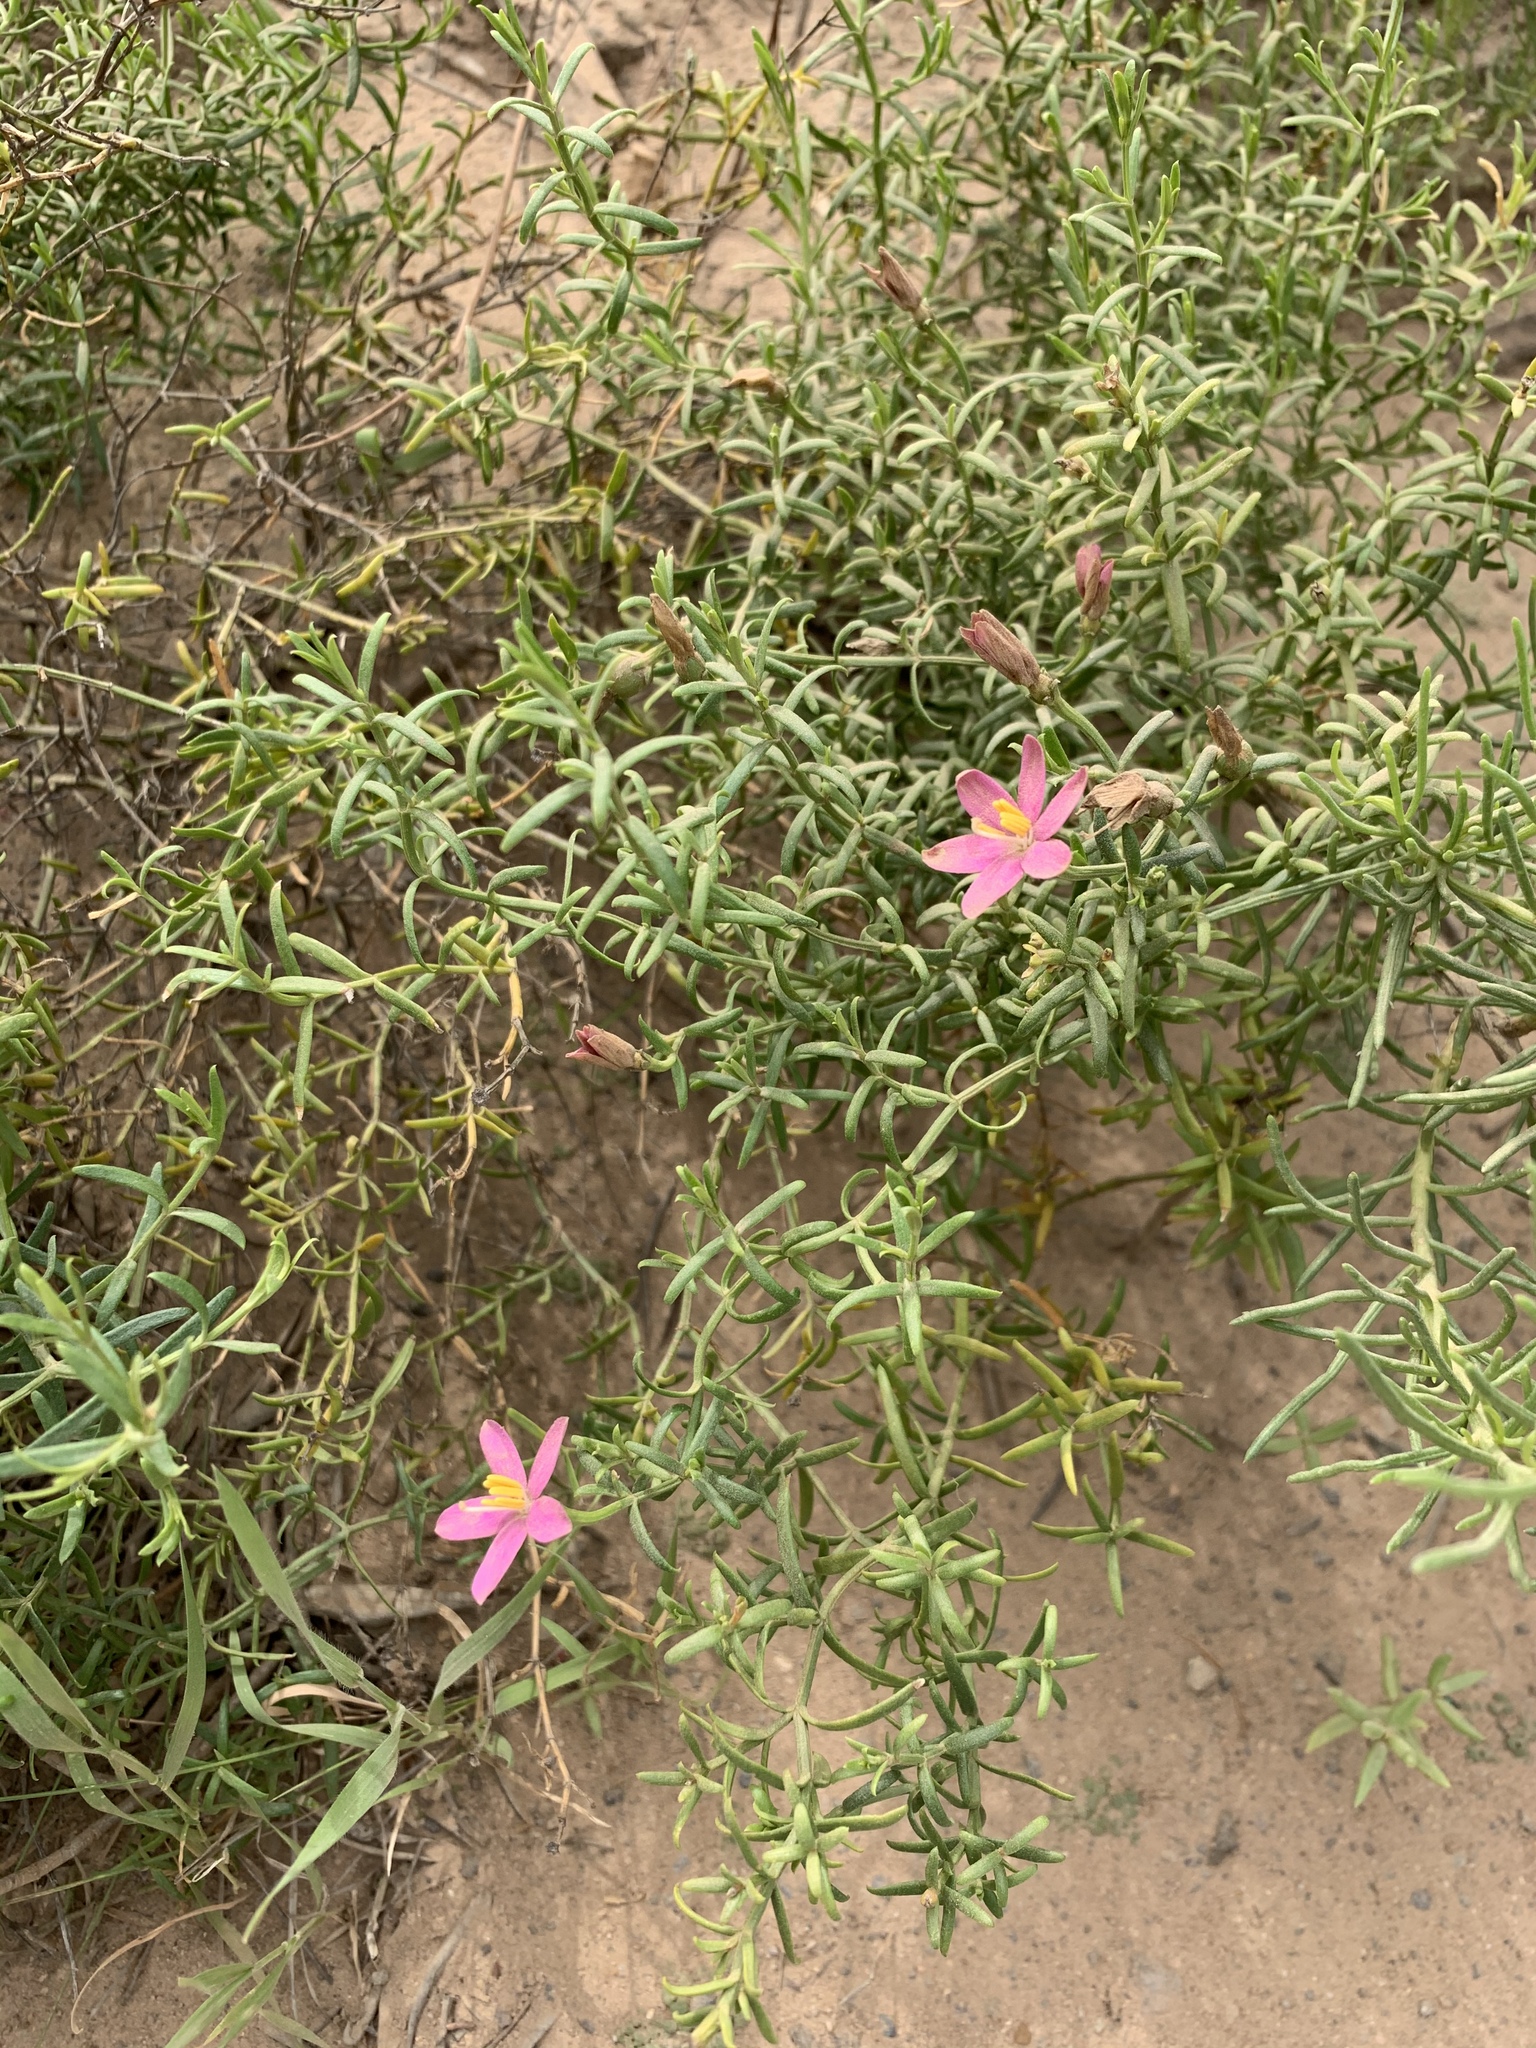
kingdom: Plantae
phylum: Tracheophyta
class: Magnoliopsida
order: Gentianales
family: Gentianaceae
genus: Chironia
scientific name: Chironia baccifera
